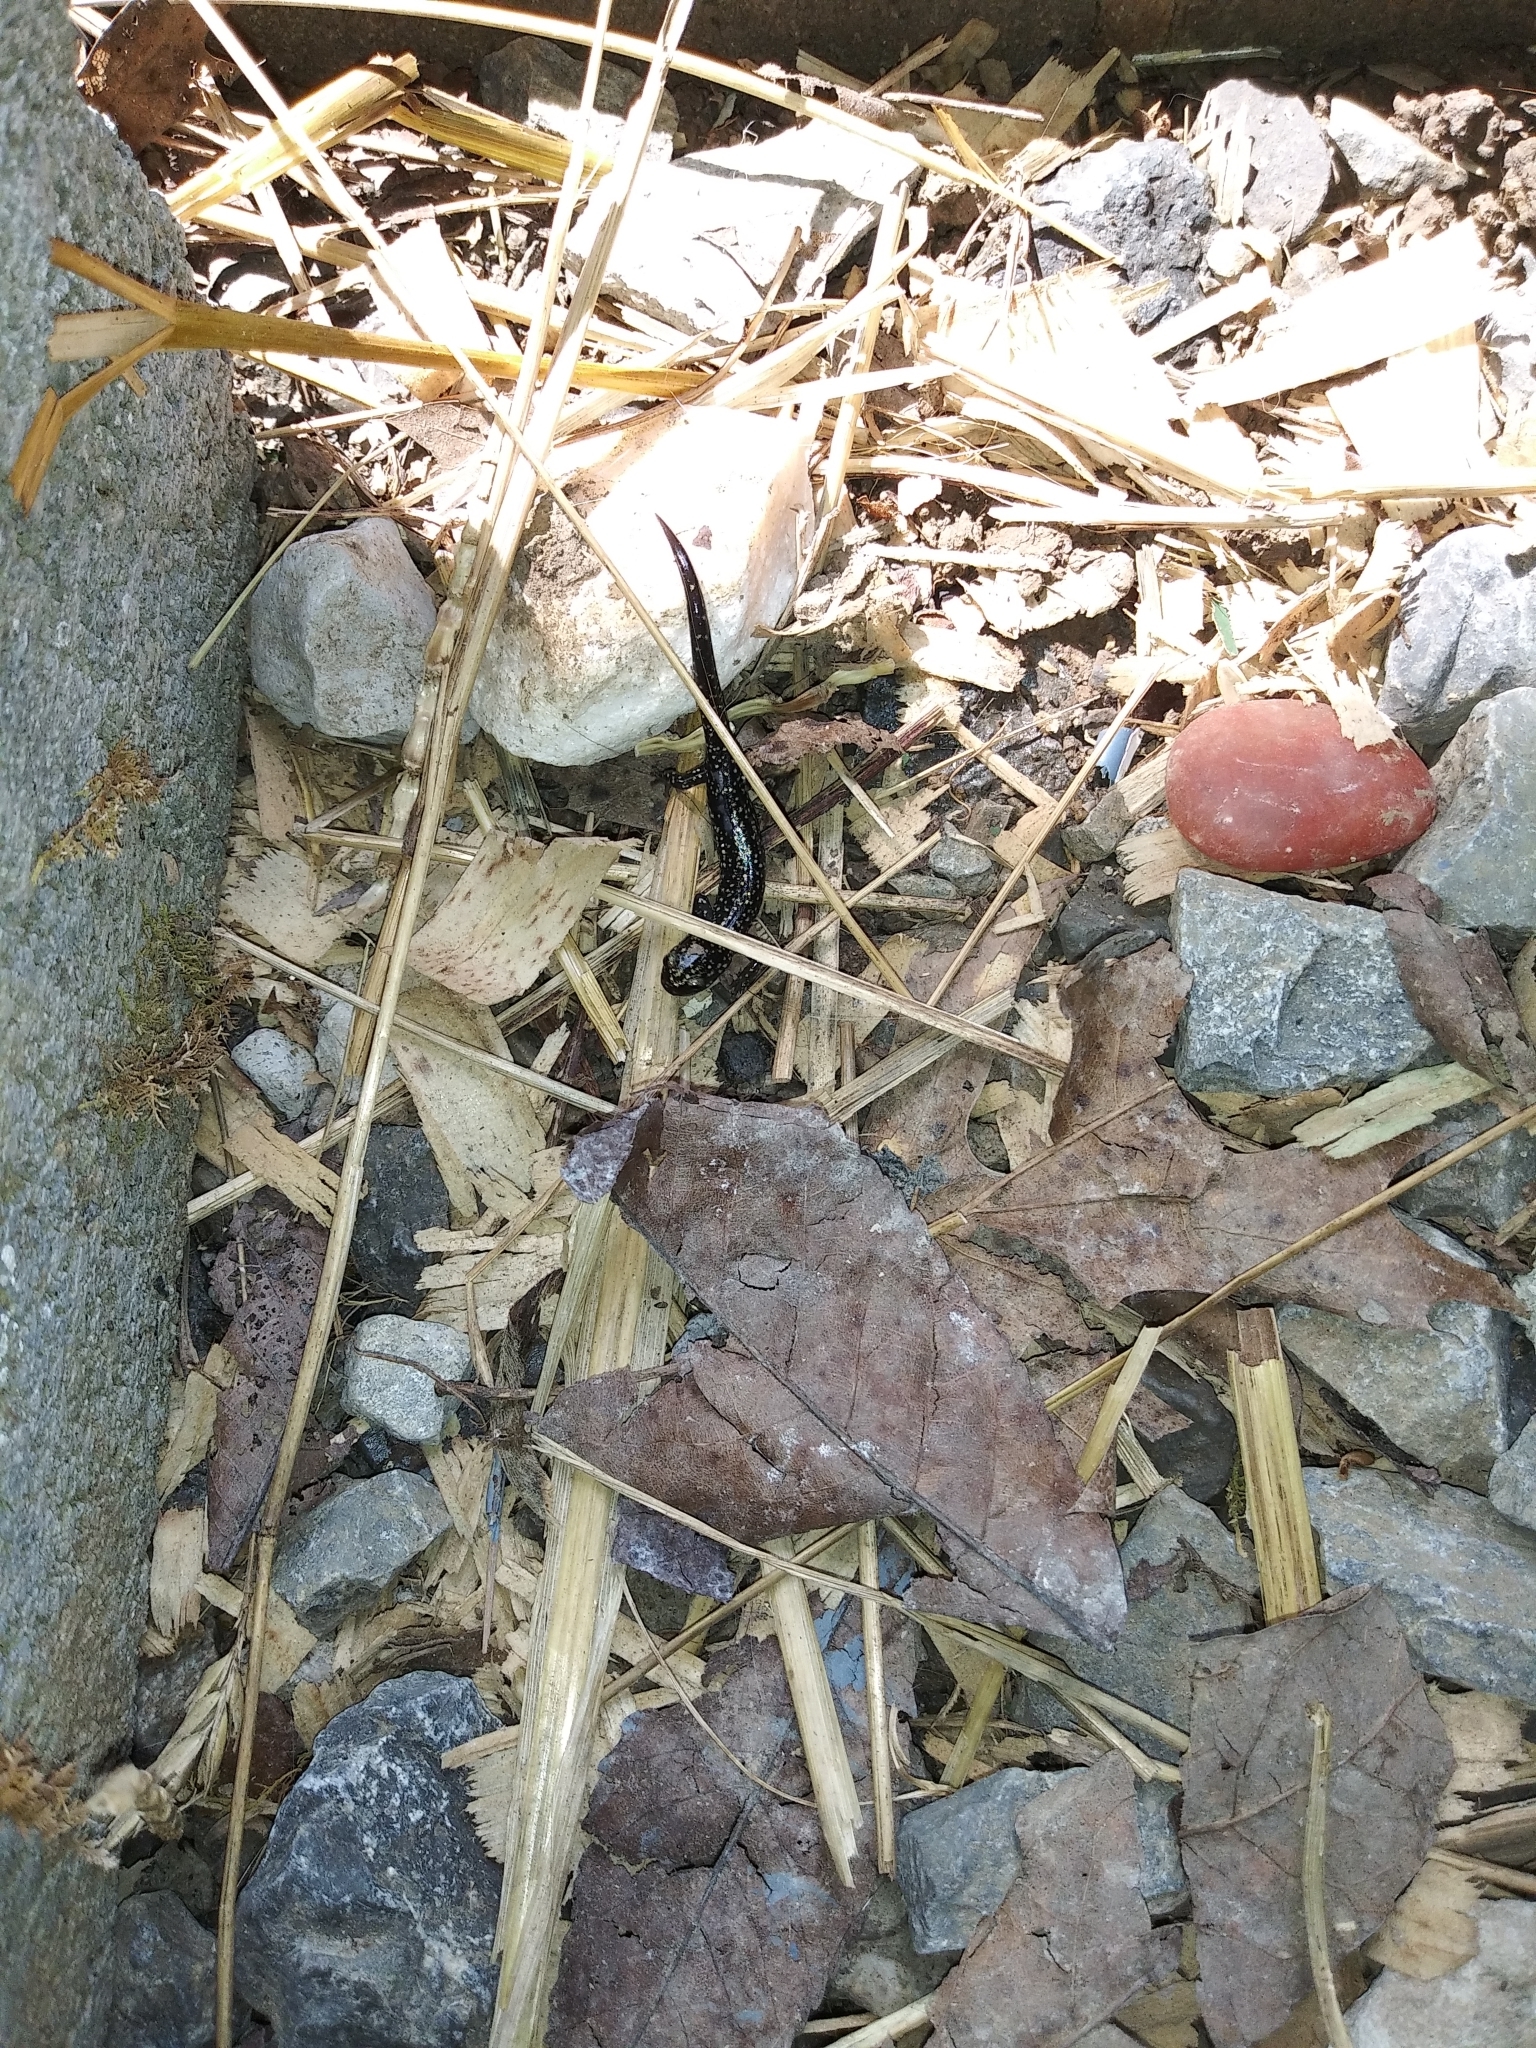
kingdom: Animalia
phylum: Chordata
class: Amphibia
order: Caudata
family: Plethodontidae
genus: Plethodon
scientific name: Plethodon glutinosus
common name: Northern slimy salamander
